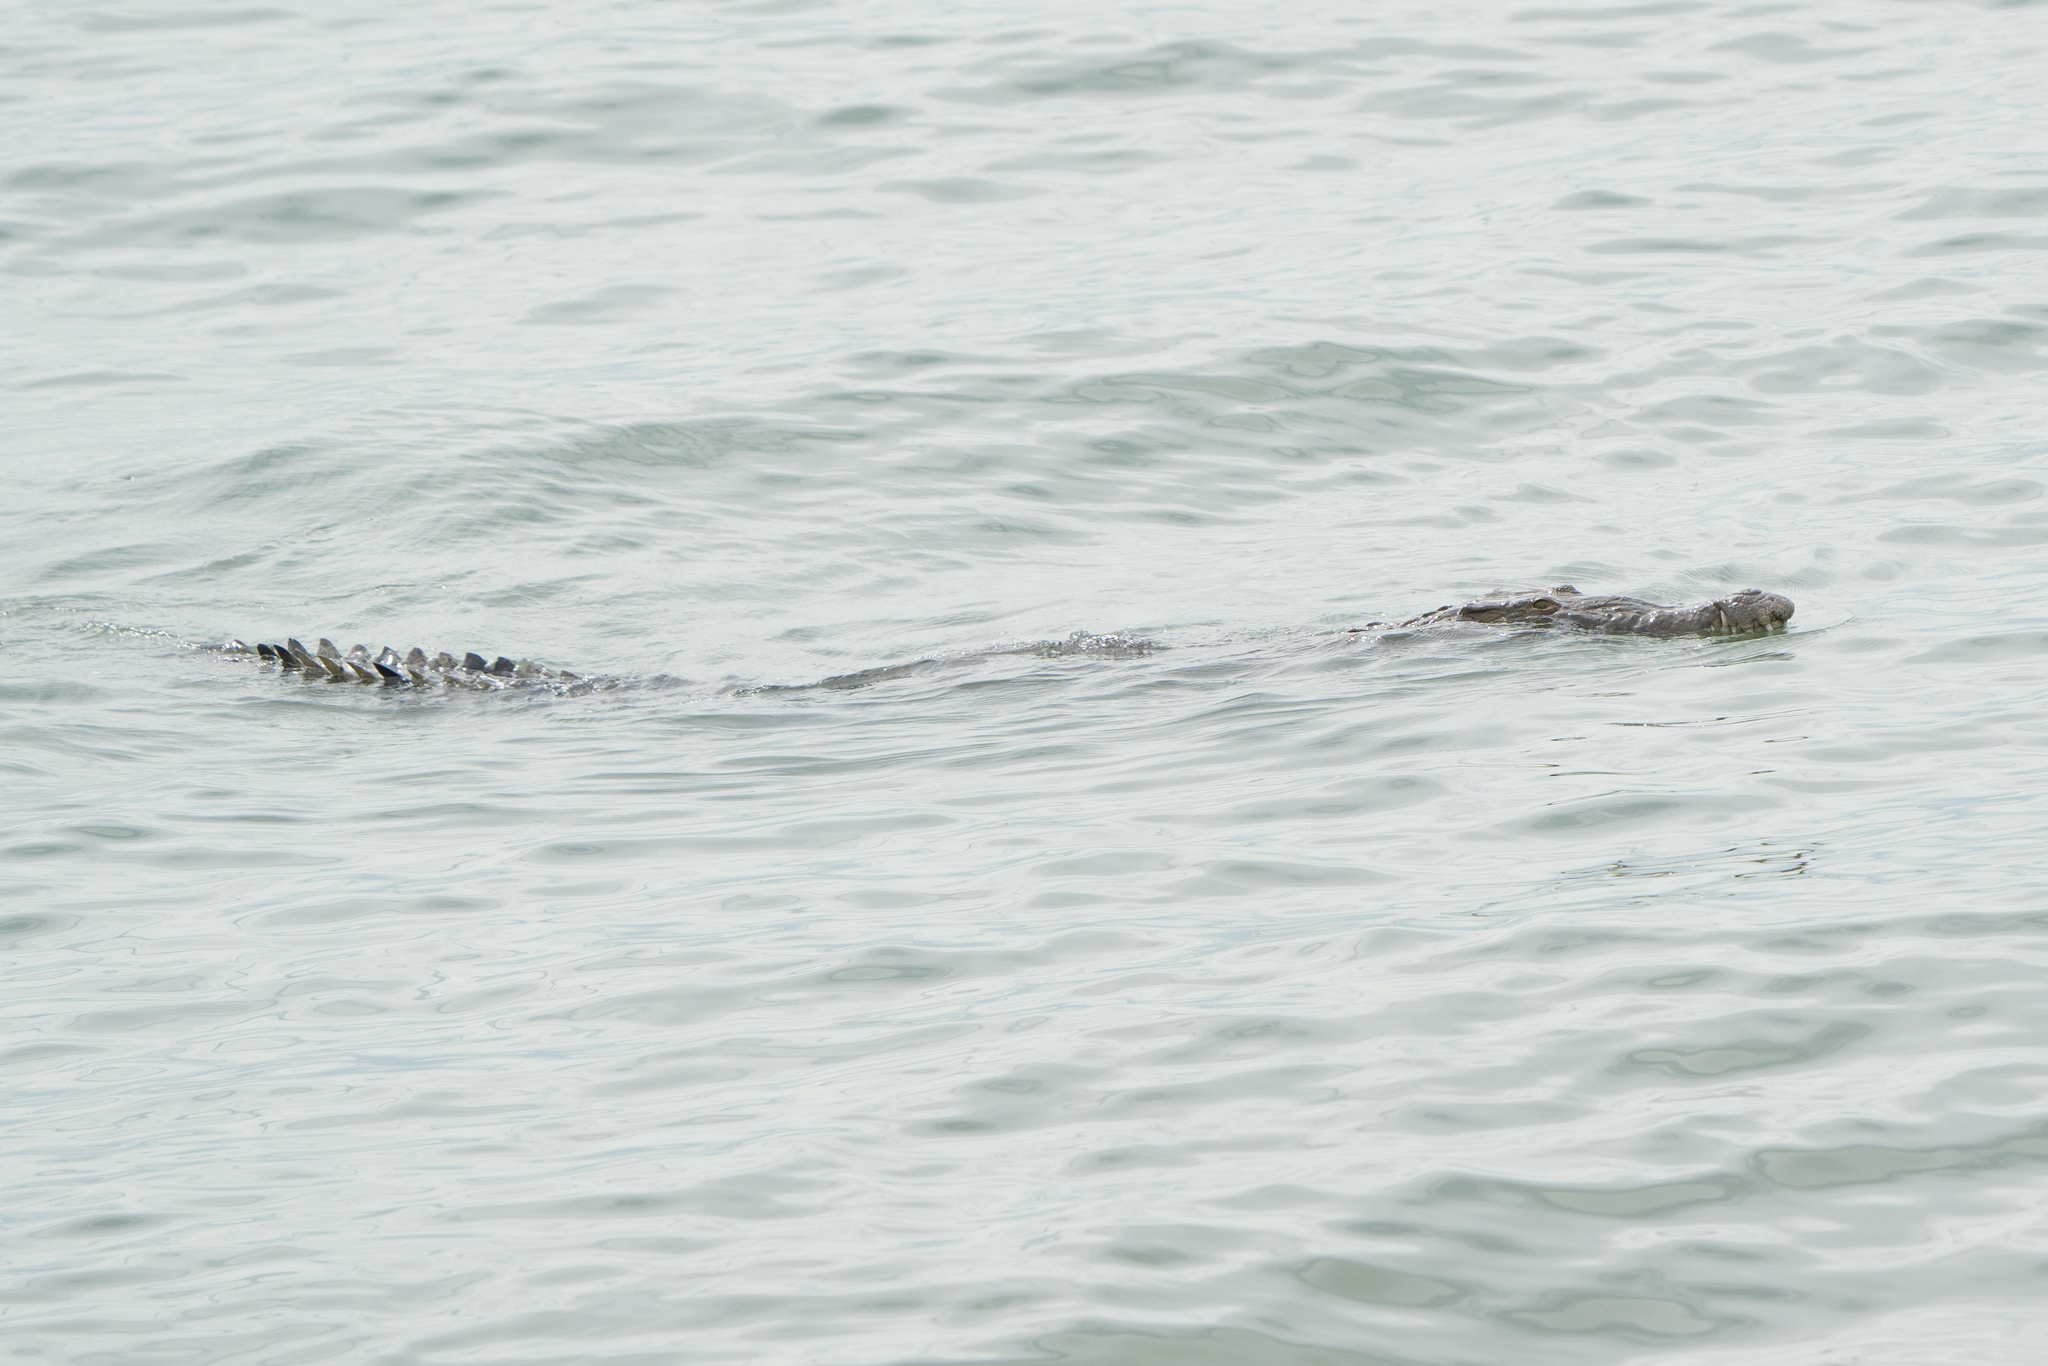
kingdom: Animalia
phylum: Chordata
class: Crocodylia
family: Crocodylidae
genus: Crocodylus
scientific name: Crocodylus acutus
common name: American crocodile
